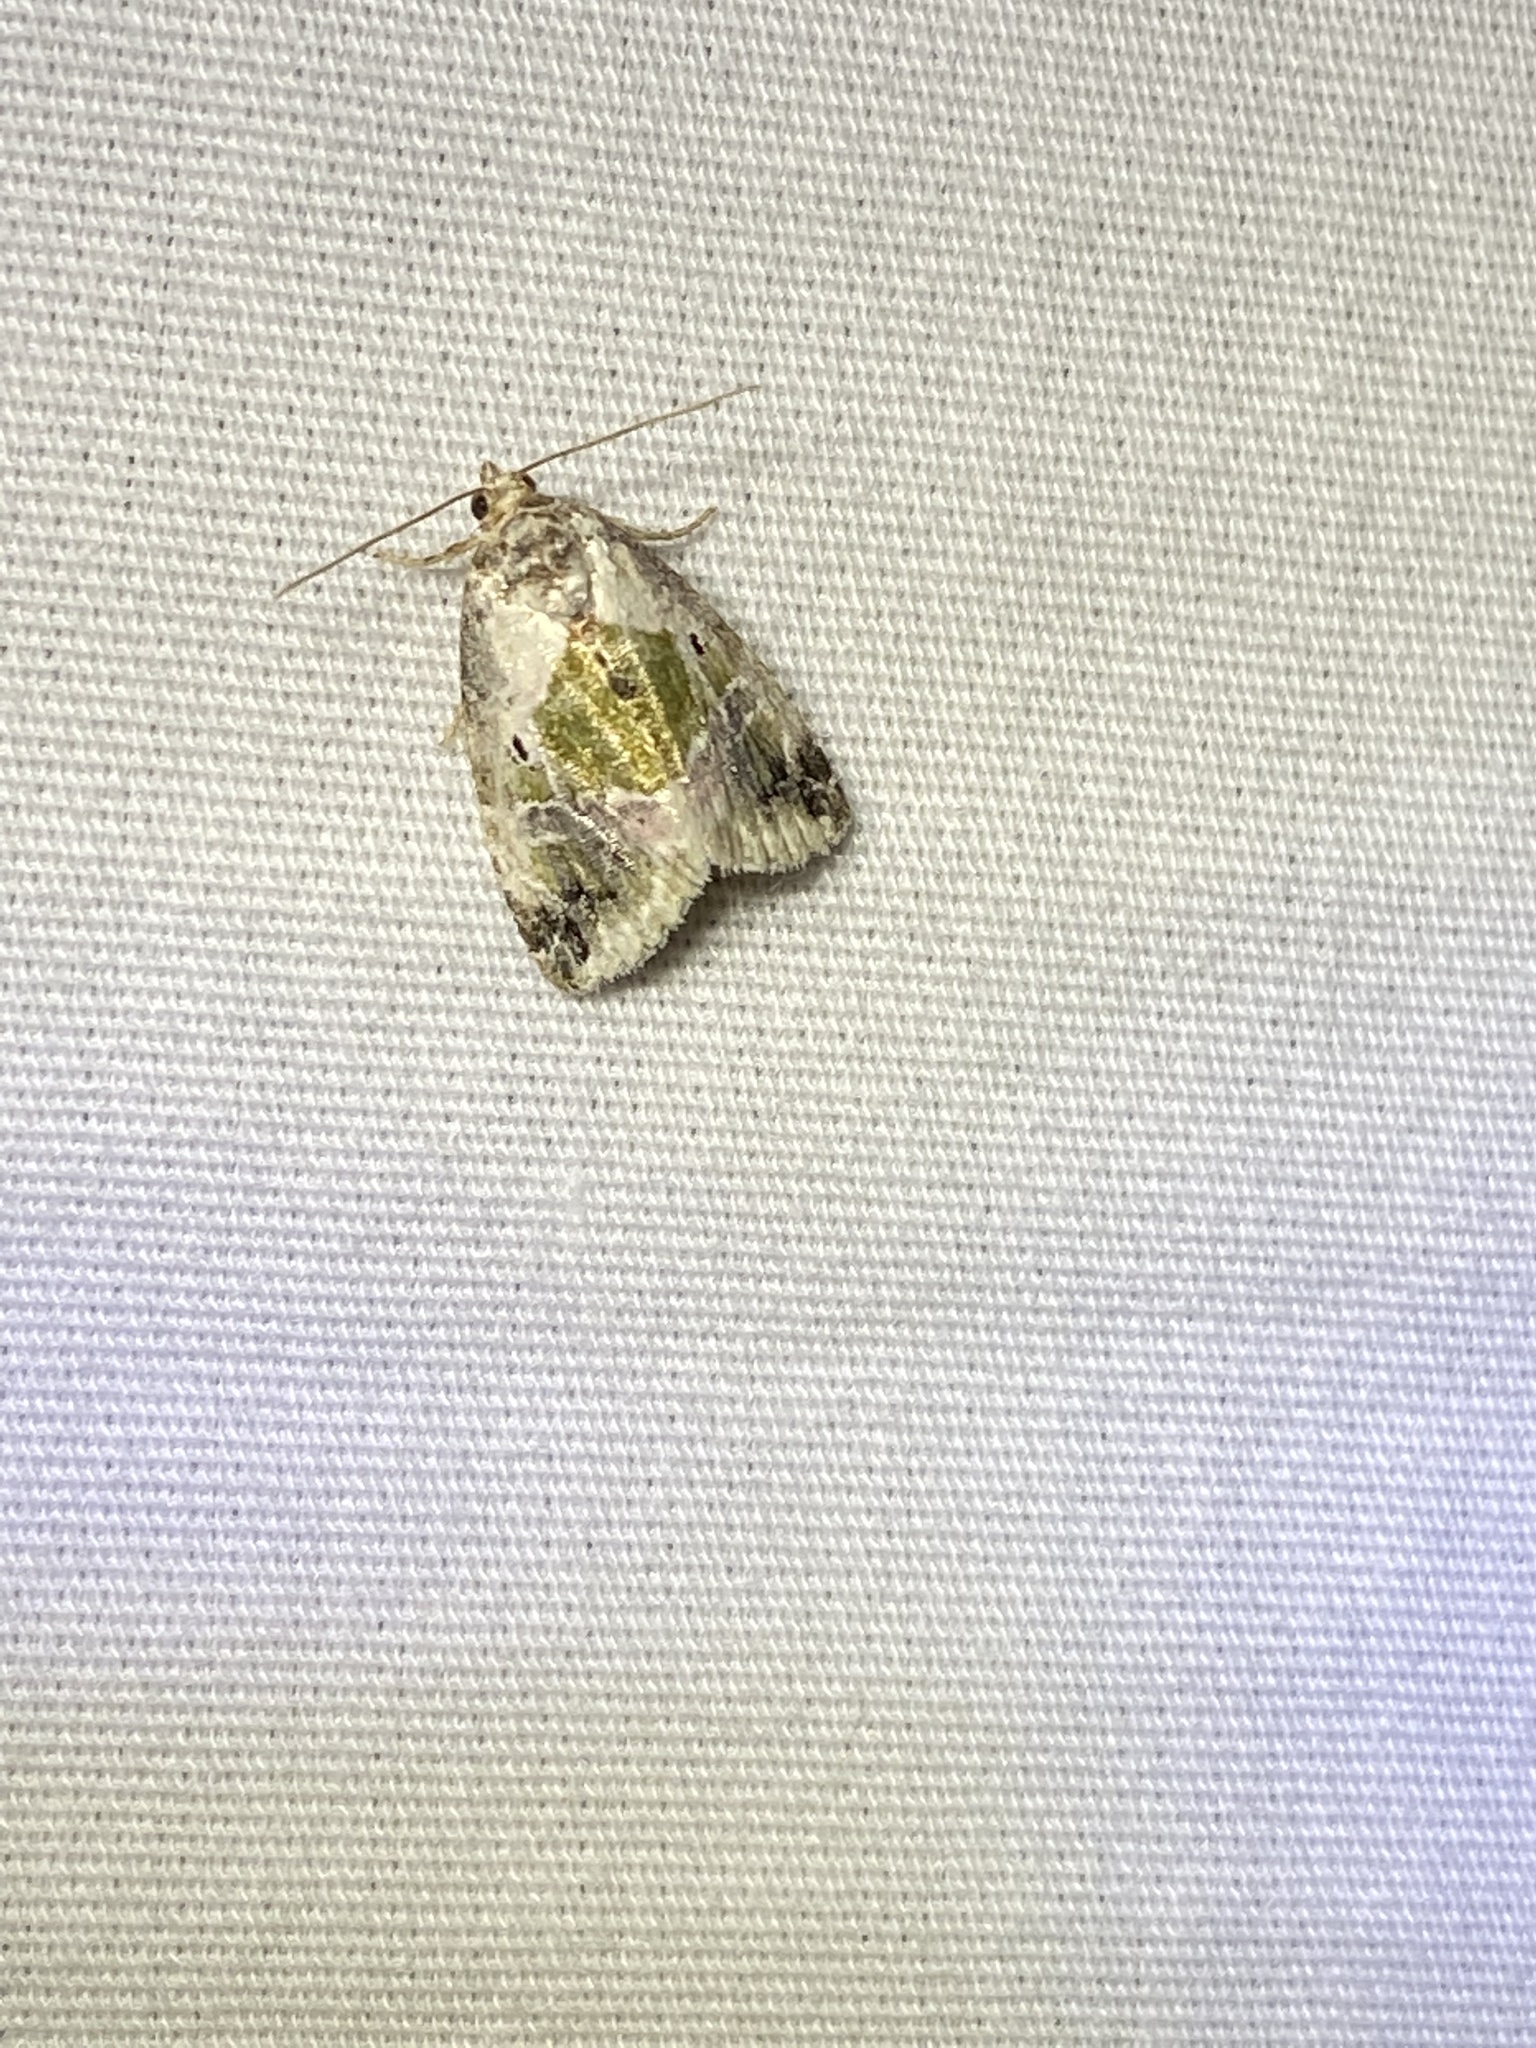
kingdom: Animalia
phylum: Arthropoda
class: Insecta
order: Lepidoptera
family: Noctuidae
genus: Maliattha
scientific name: Maliattha synochitis
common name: Black-dotted glyph
